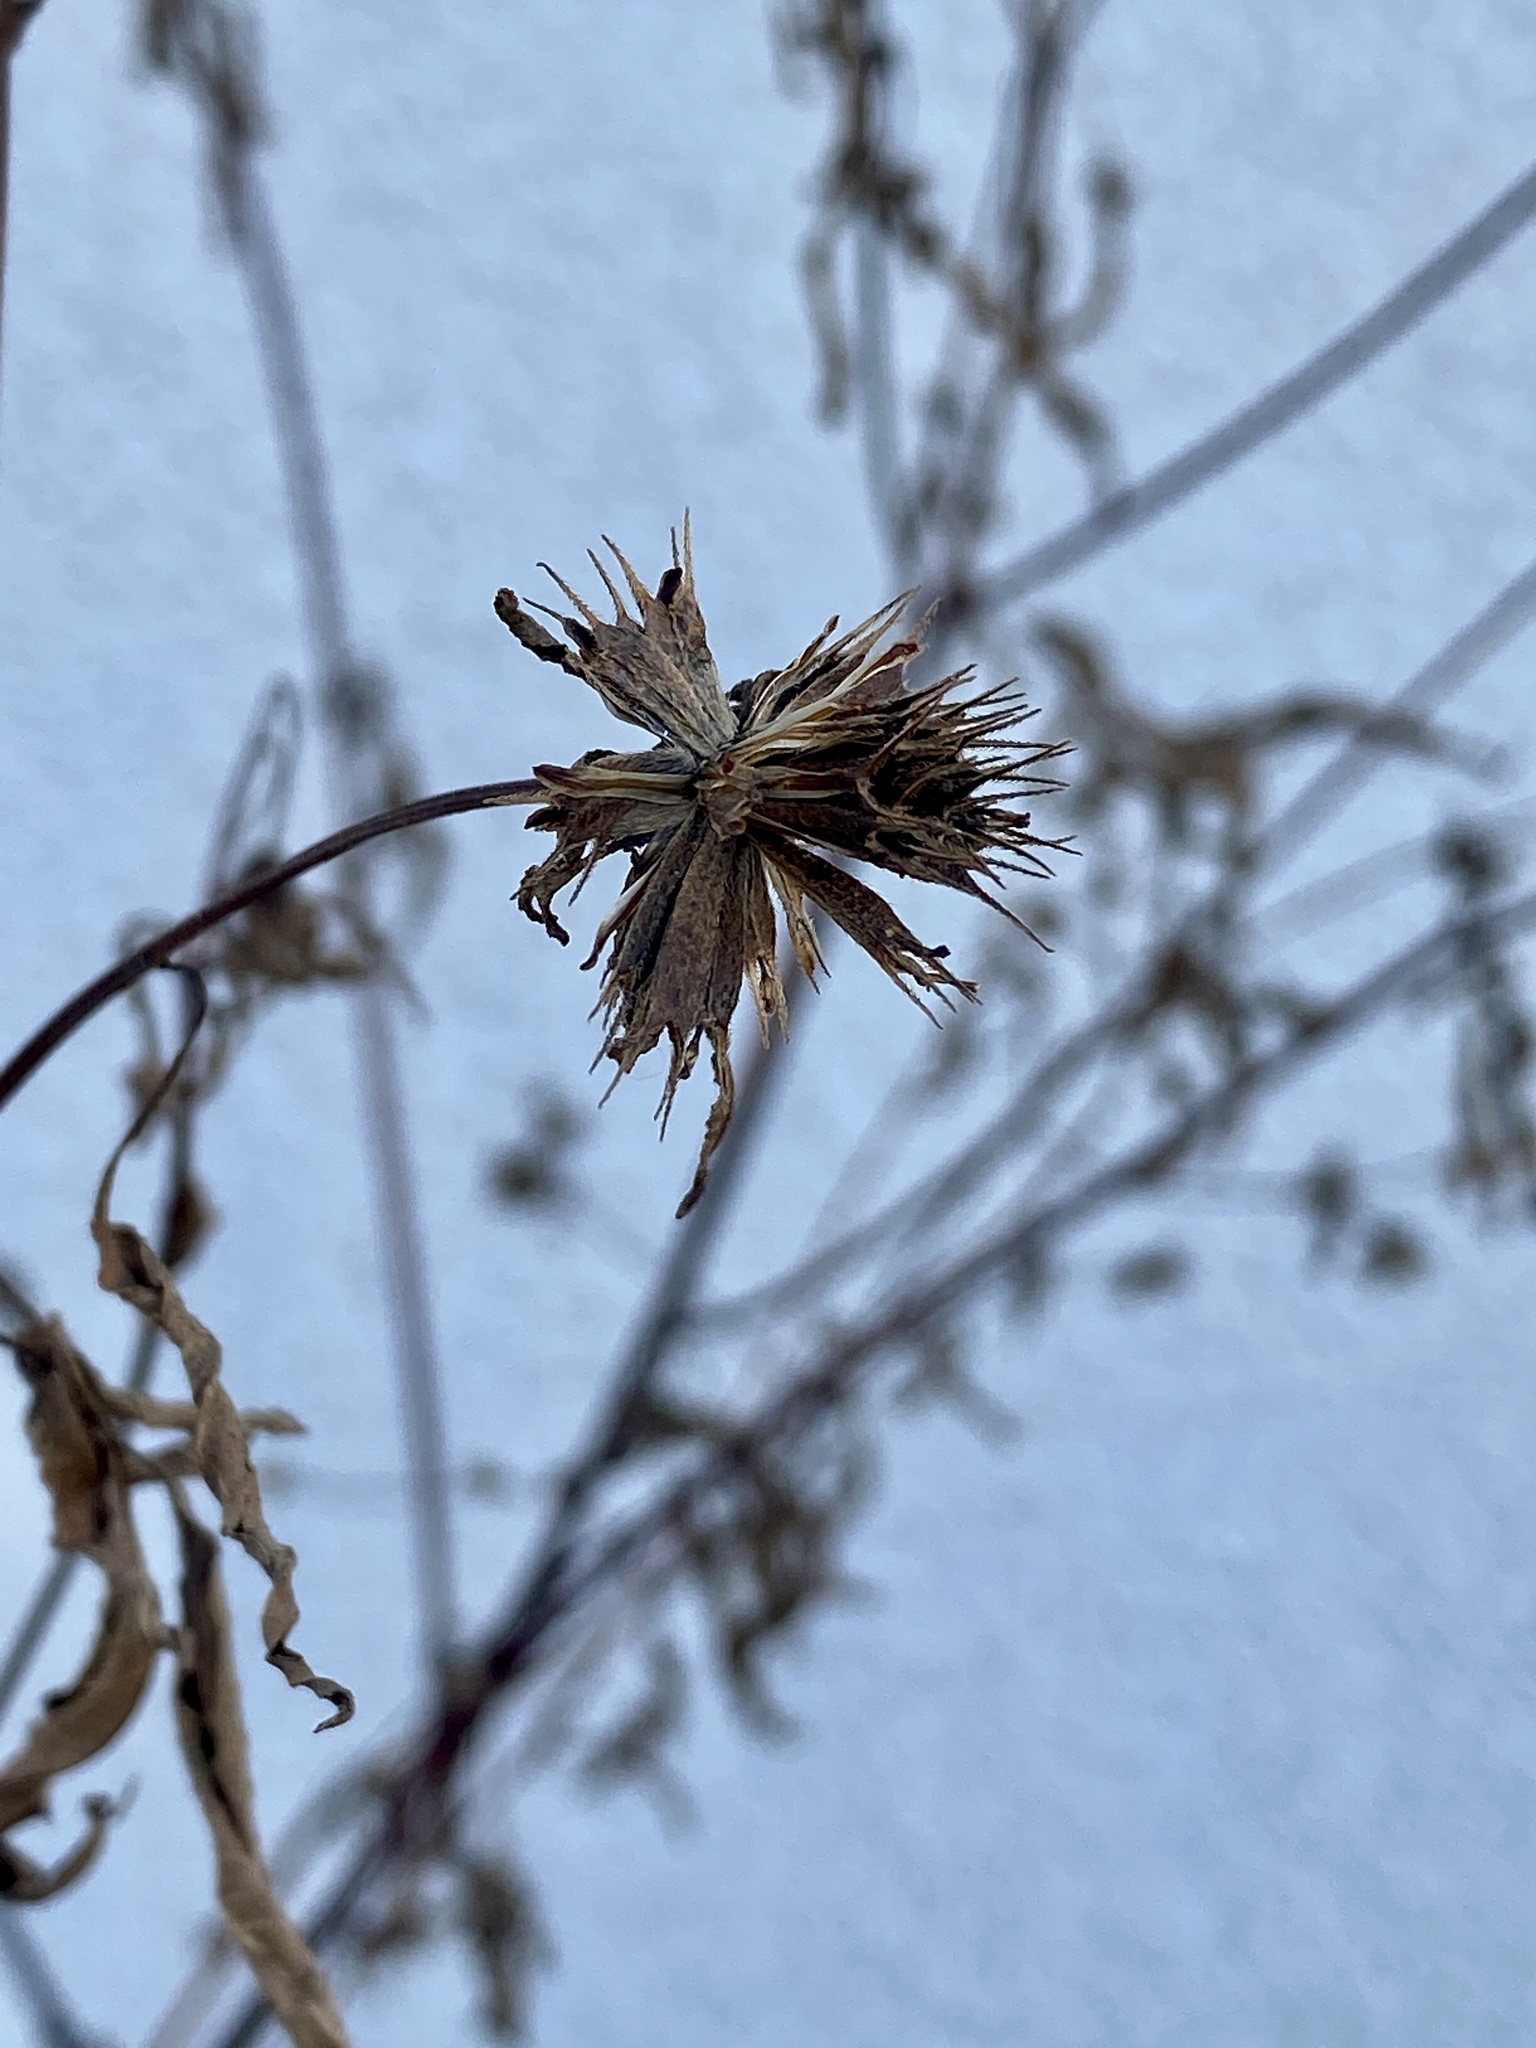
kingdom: Plantae
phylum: Tracheophyta
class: Magnoliopsida
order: Asterales
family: Asteraceae
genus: Bidens
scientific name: Bidens frondosa
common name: Beggarticks
